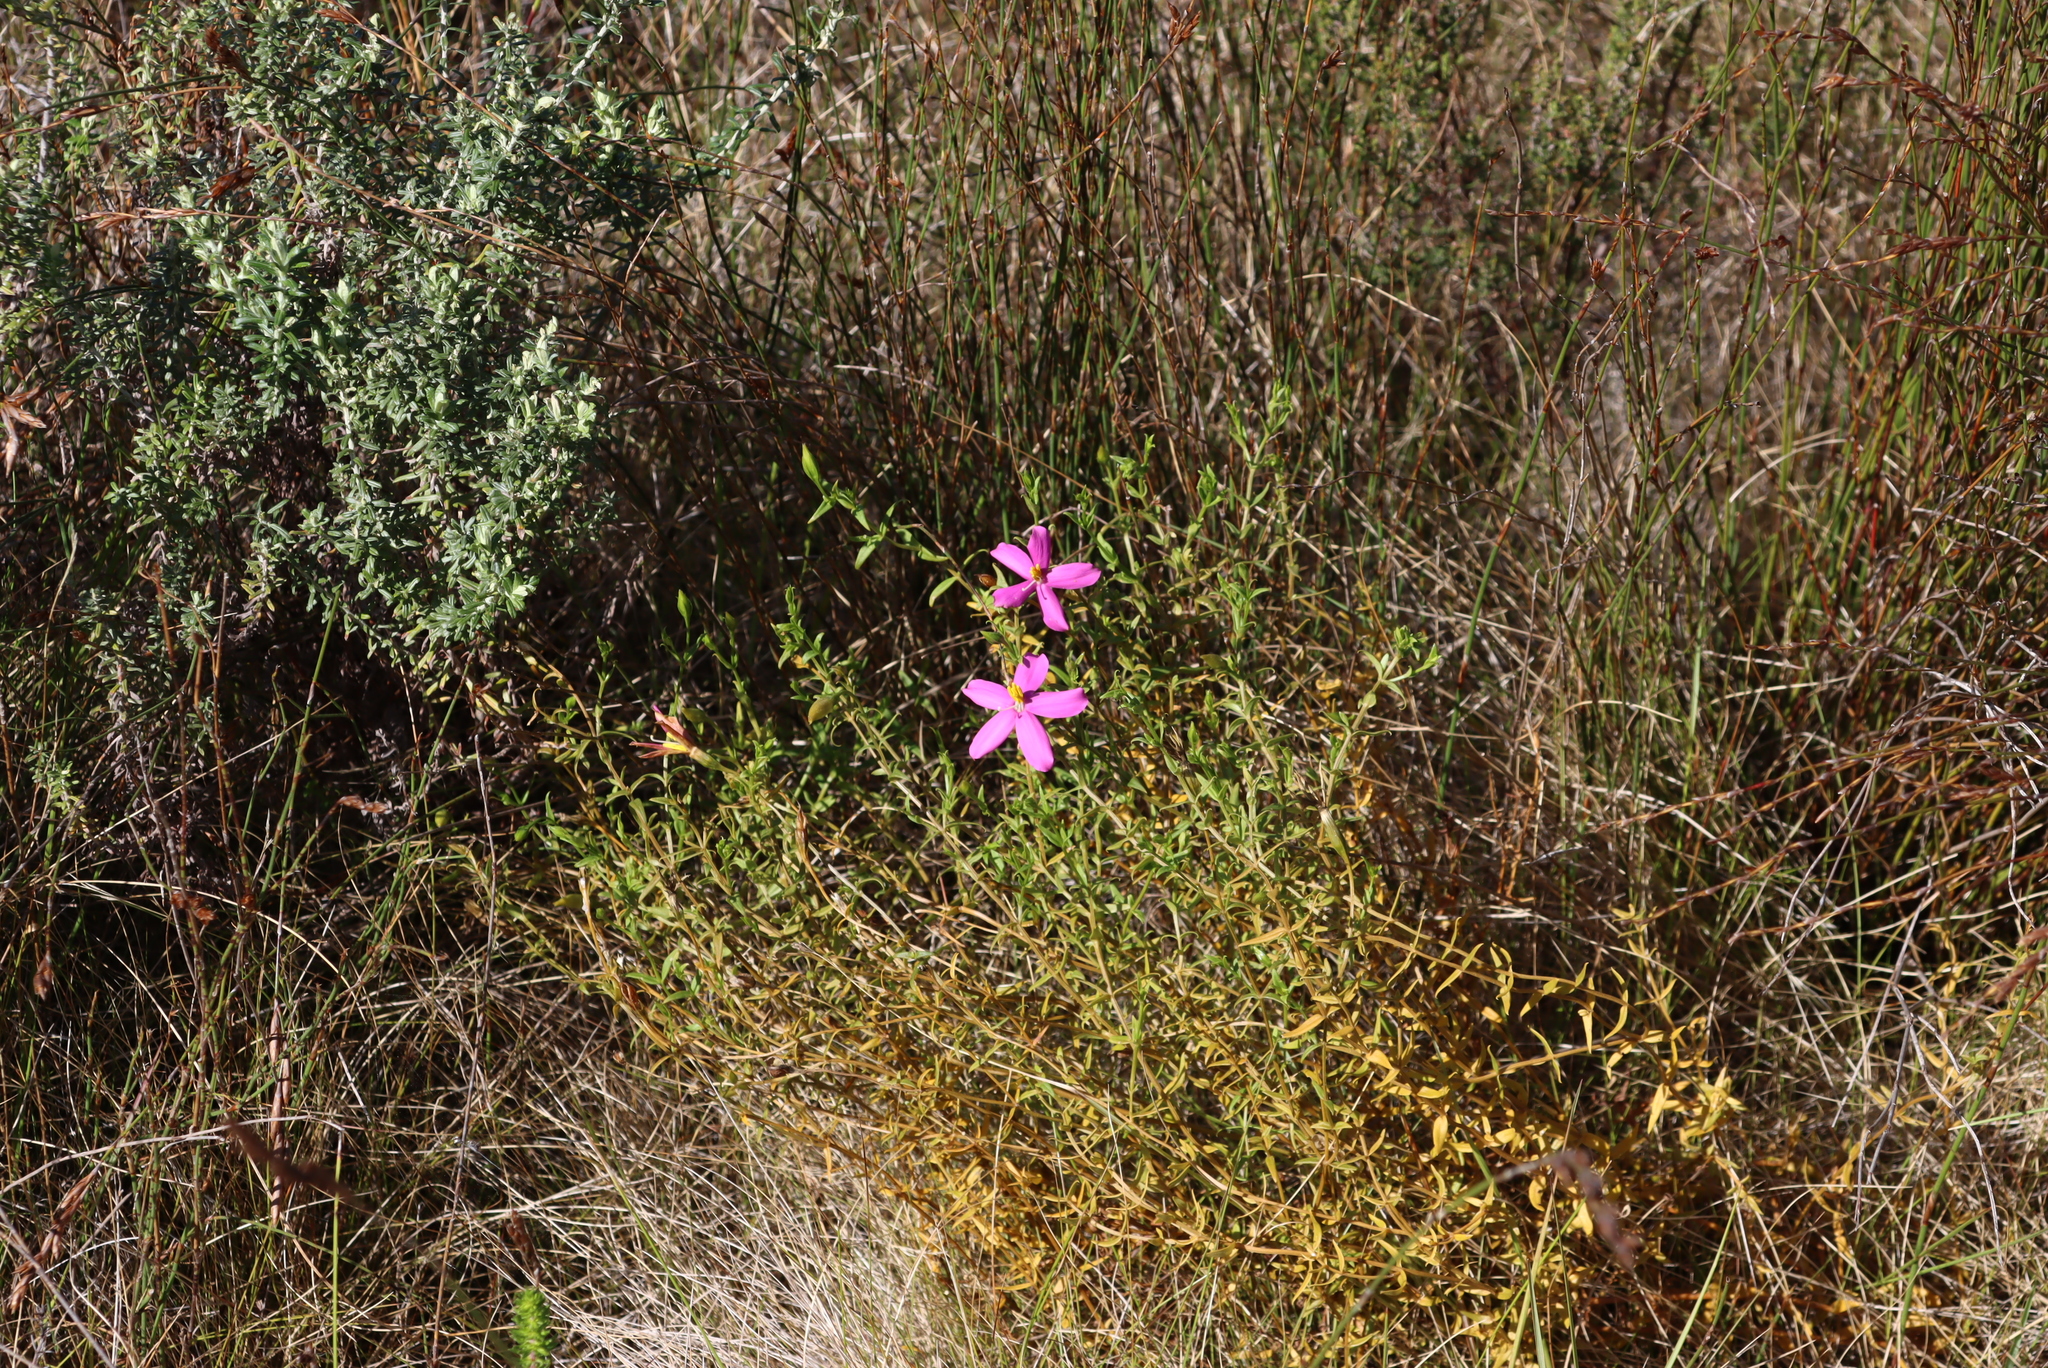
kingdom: Plantae
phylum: Tracheophyta
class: Magnoliopsida
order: Gentianales
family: Gentianaceae
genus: Chironia
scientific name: Chironia tetragona
